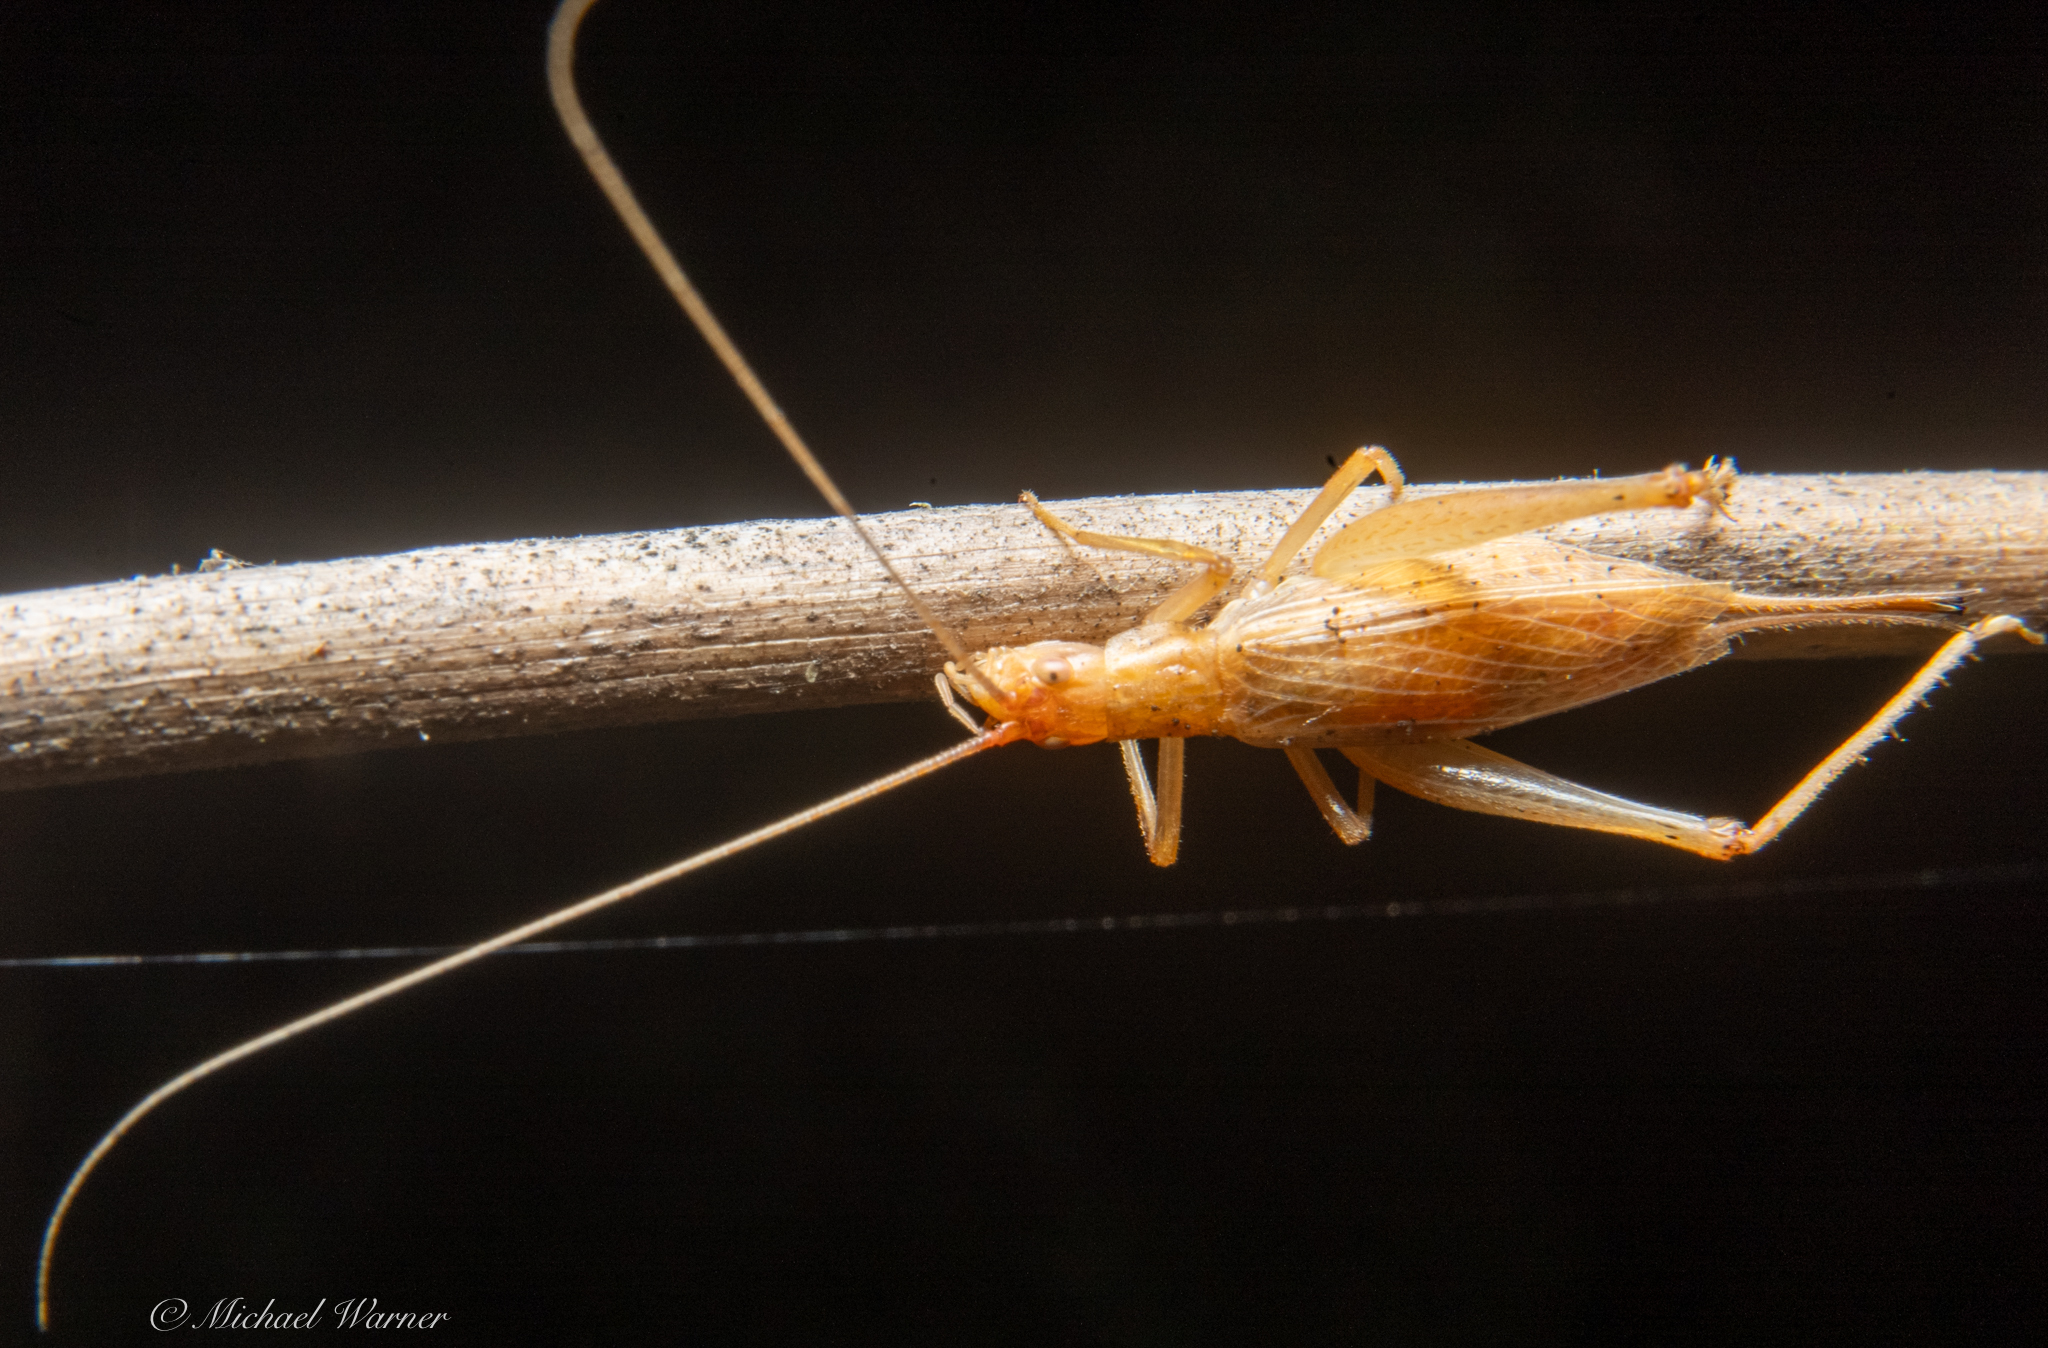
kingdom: Animalia
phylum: Arthropoda
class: Insecta
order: Orthoptera
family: Gryllidae
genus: Oecanthus
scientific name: Oecanthus californicus
